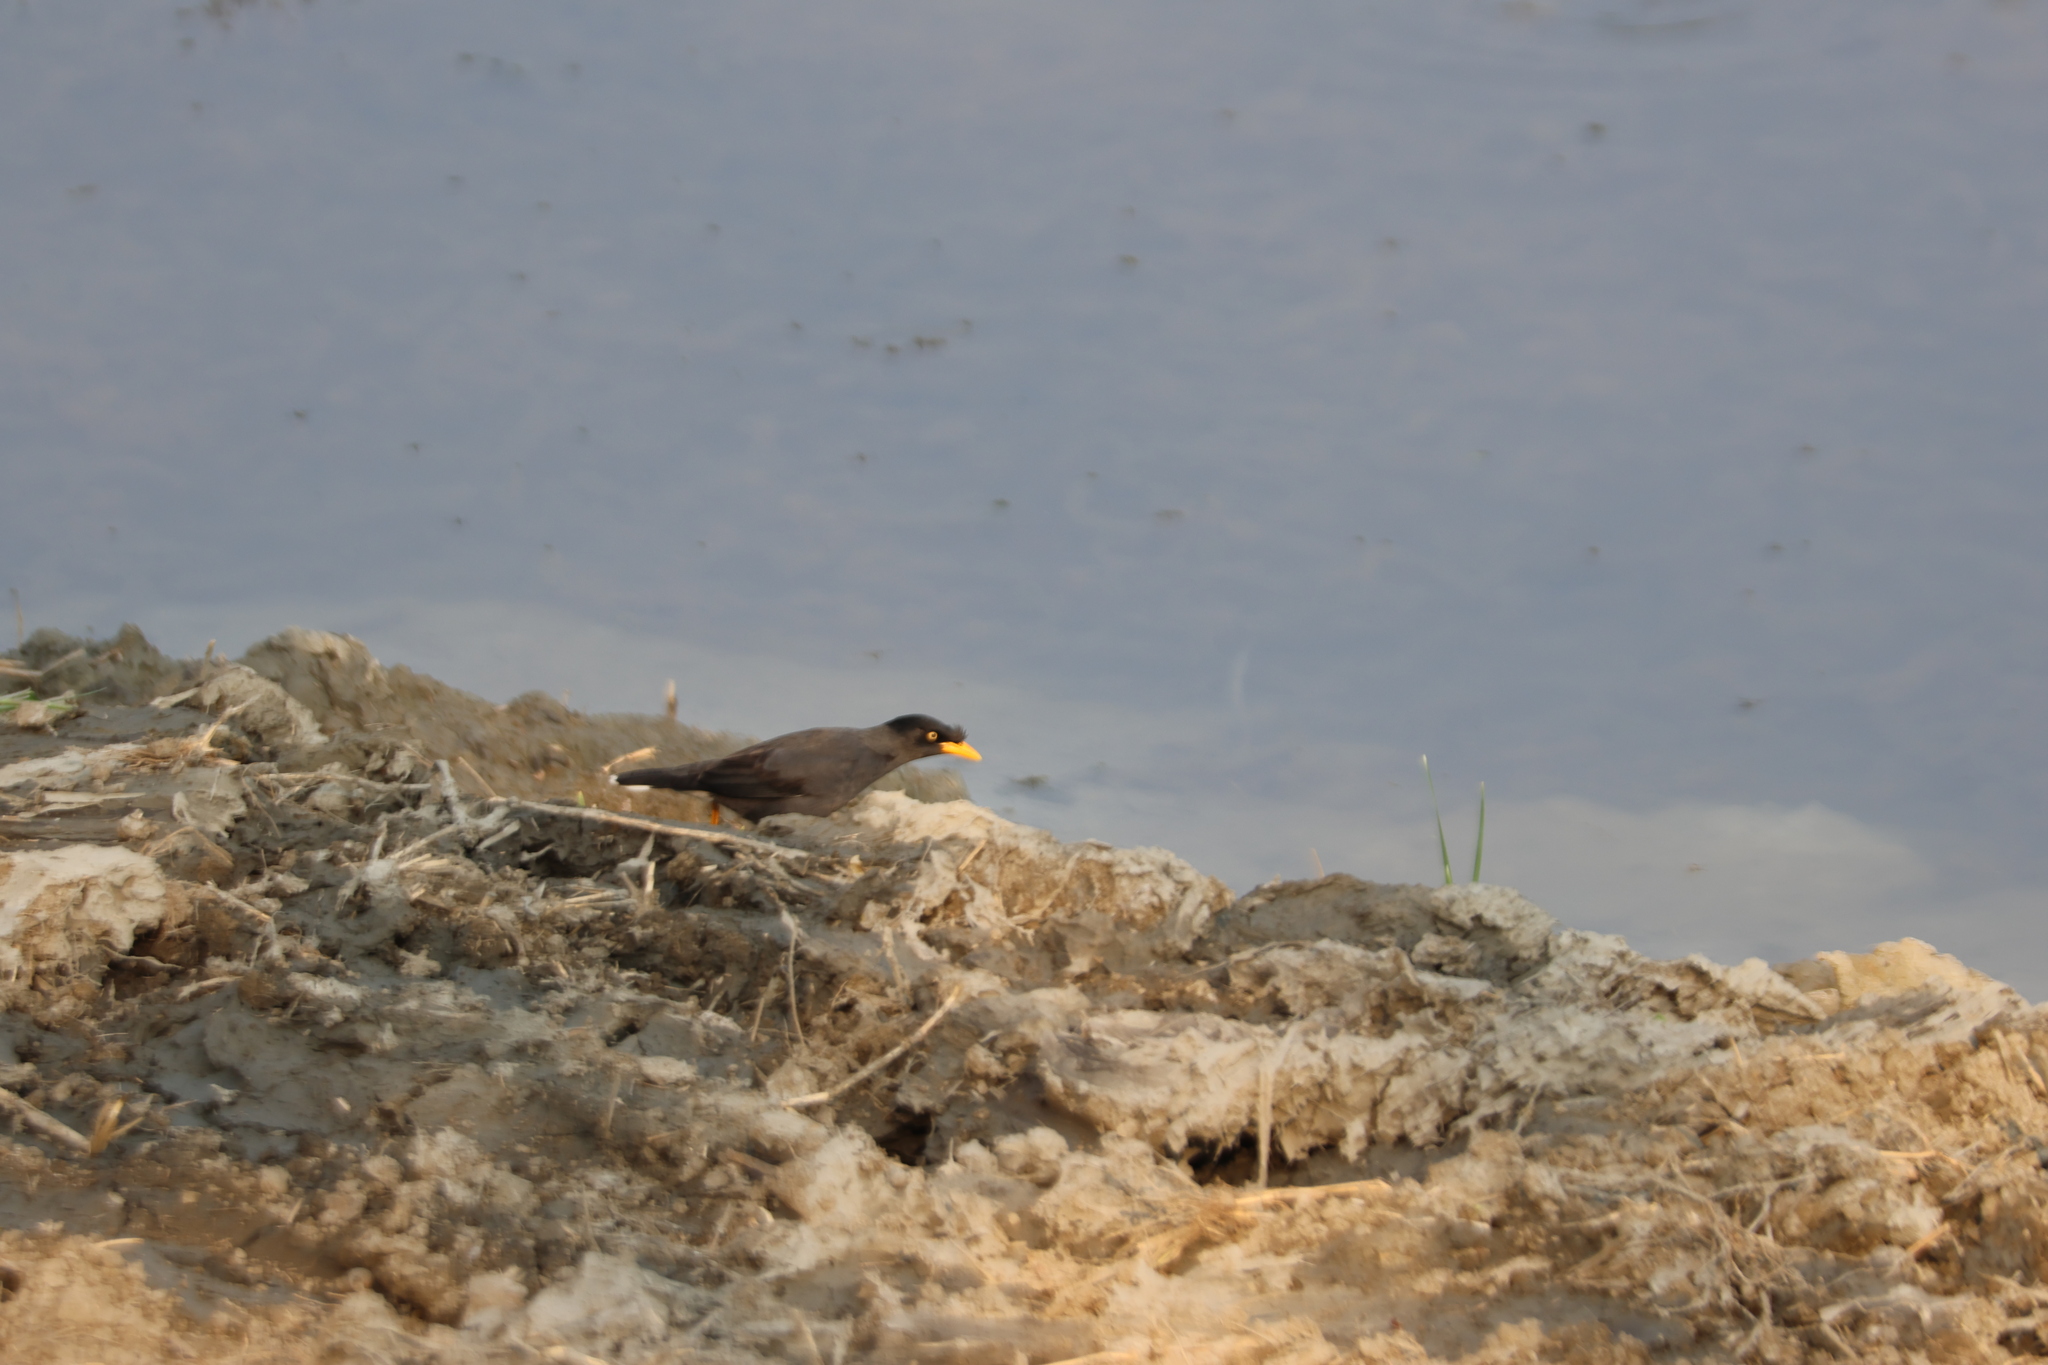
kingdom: Animalia
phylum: Chordata
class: Aves
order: Passeriformes
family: Sturnidae
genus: Acridotheres
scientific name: Acridotheres javanicus
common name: Javan myna
